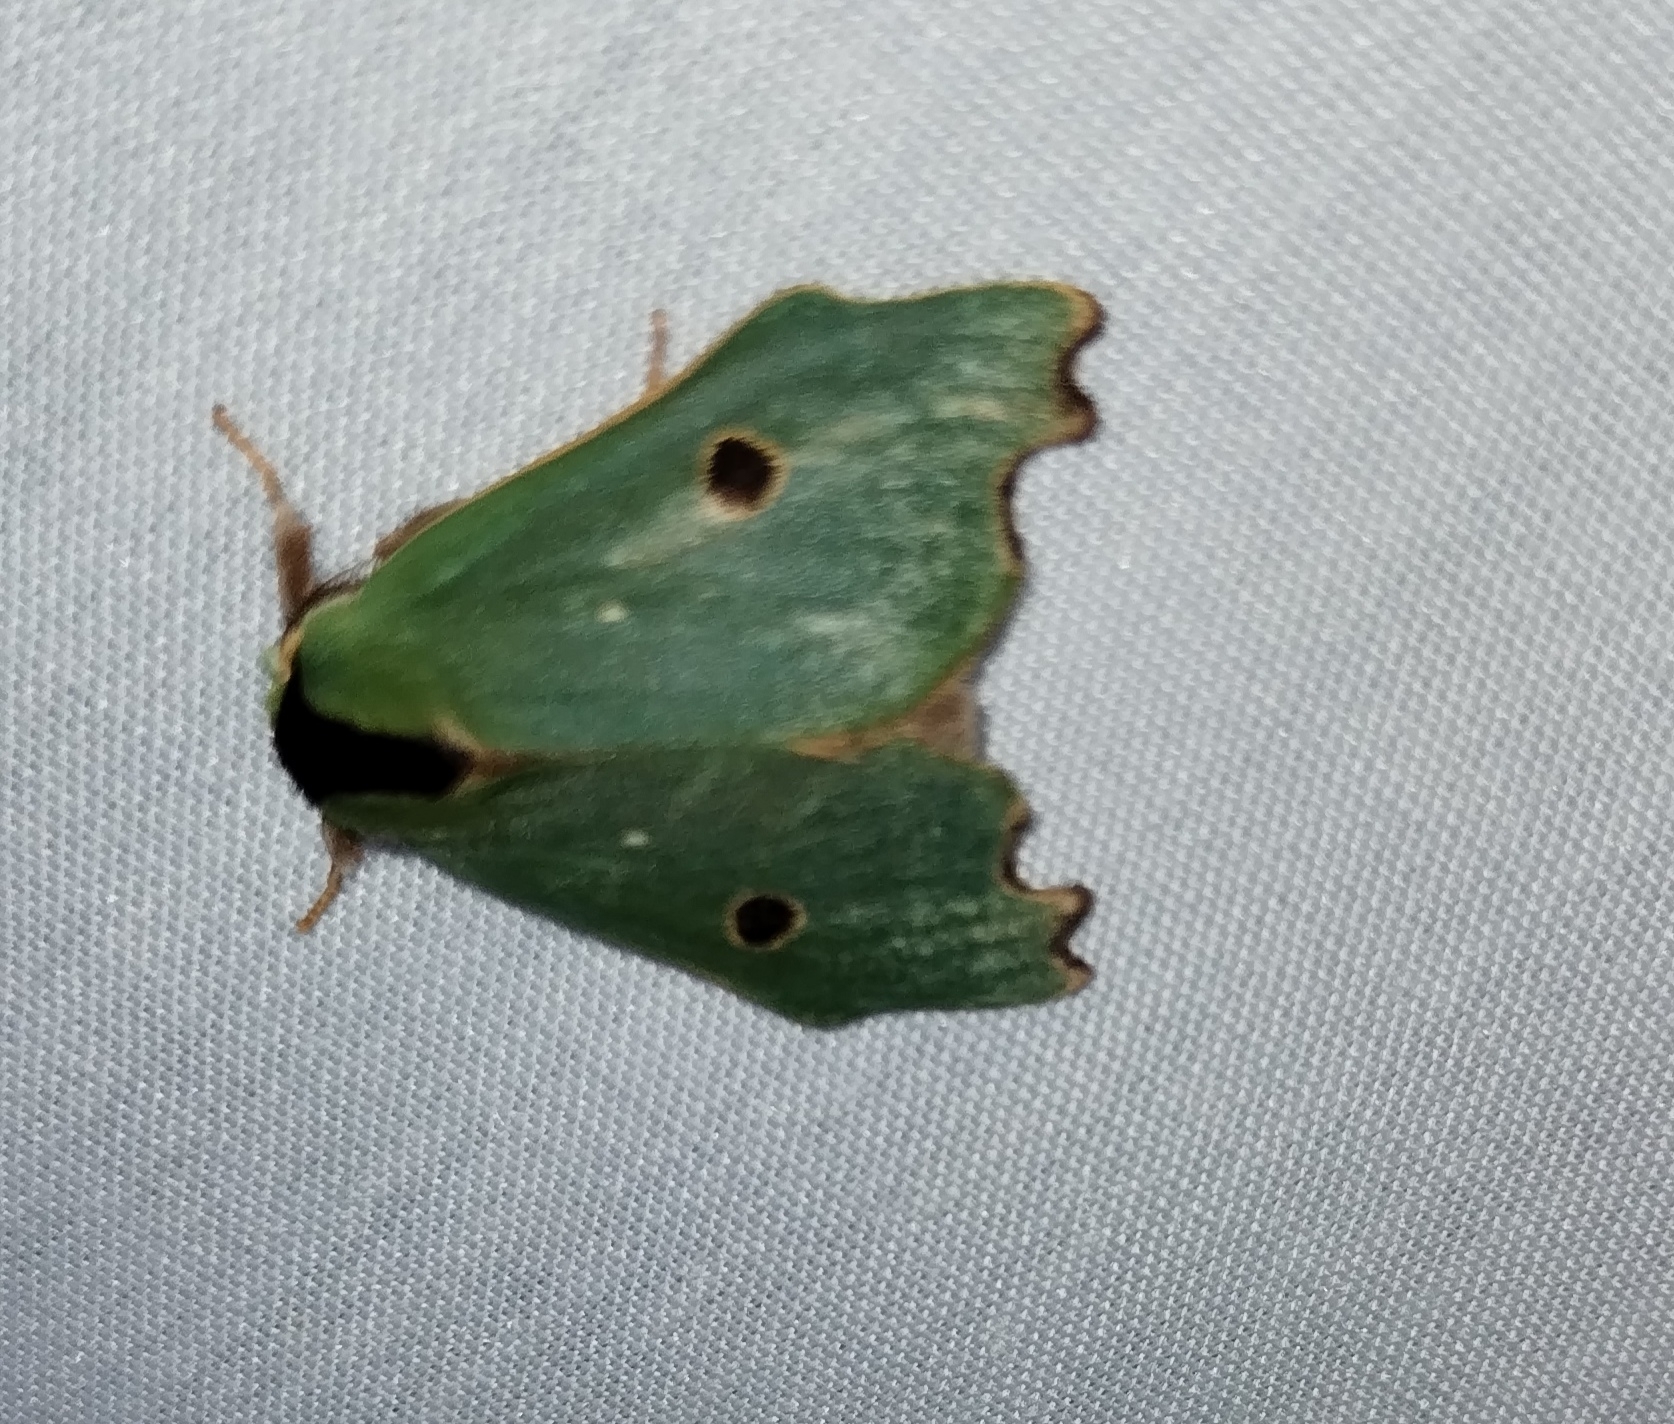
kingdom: Animalia
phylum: Arthropoda
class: Insecta
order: Lepidoptera
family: Notodontidae
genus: Rosema
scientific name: Rosema deolis
